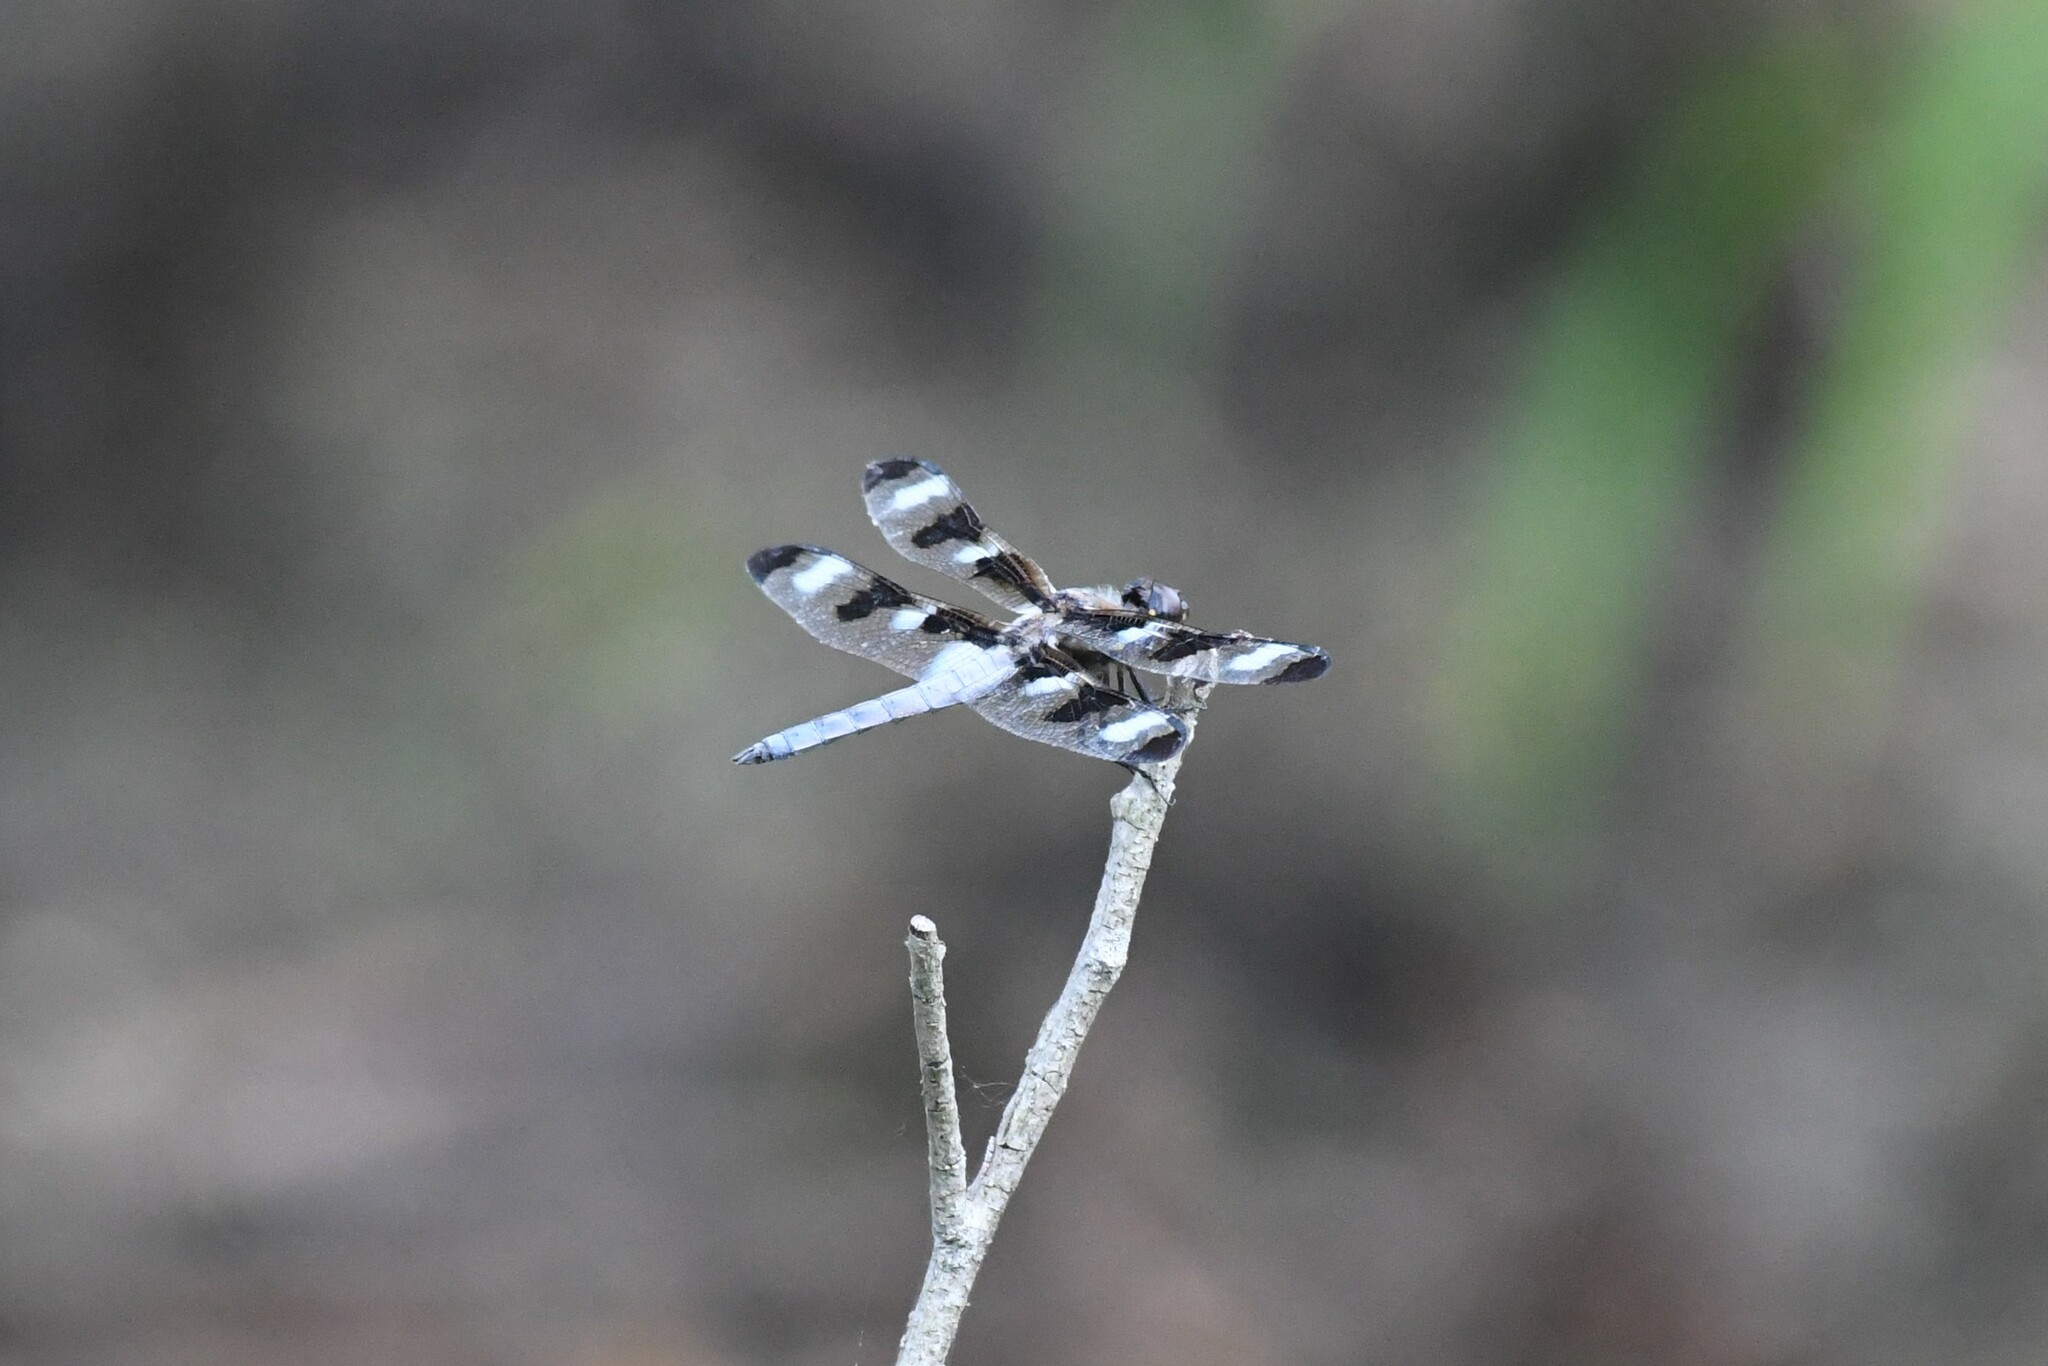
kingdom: Animalia
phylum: Arthropoda
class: Insecta
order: Odonata
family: Libellulidae
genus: Libellula
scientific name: Libellula pulchella
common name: Twelve-spotted skimmer
